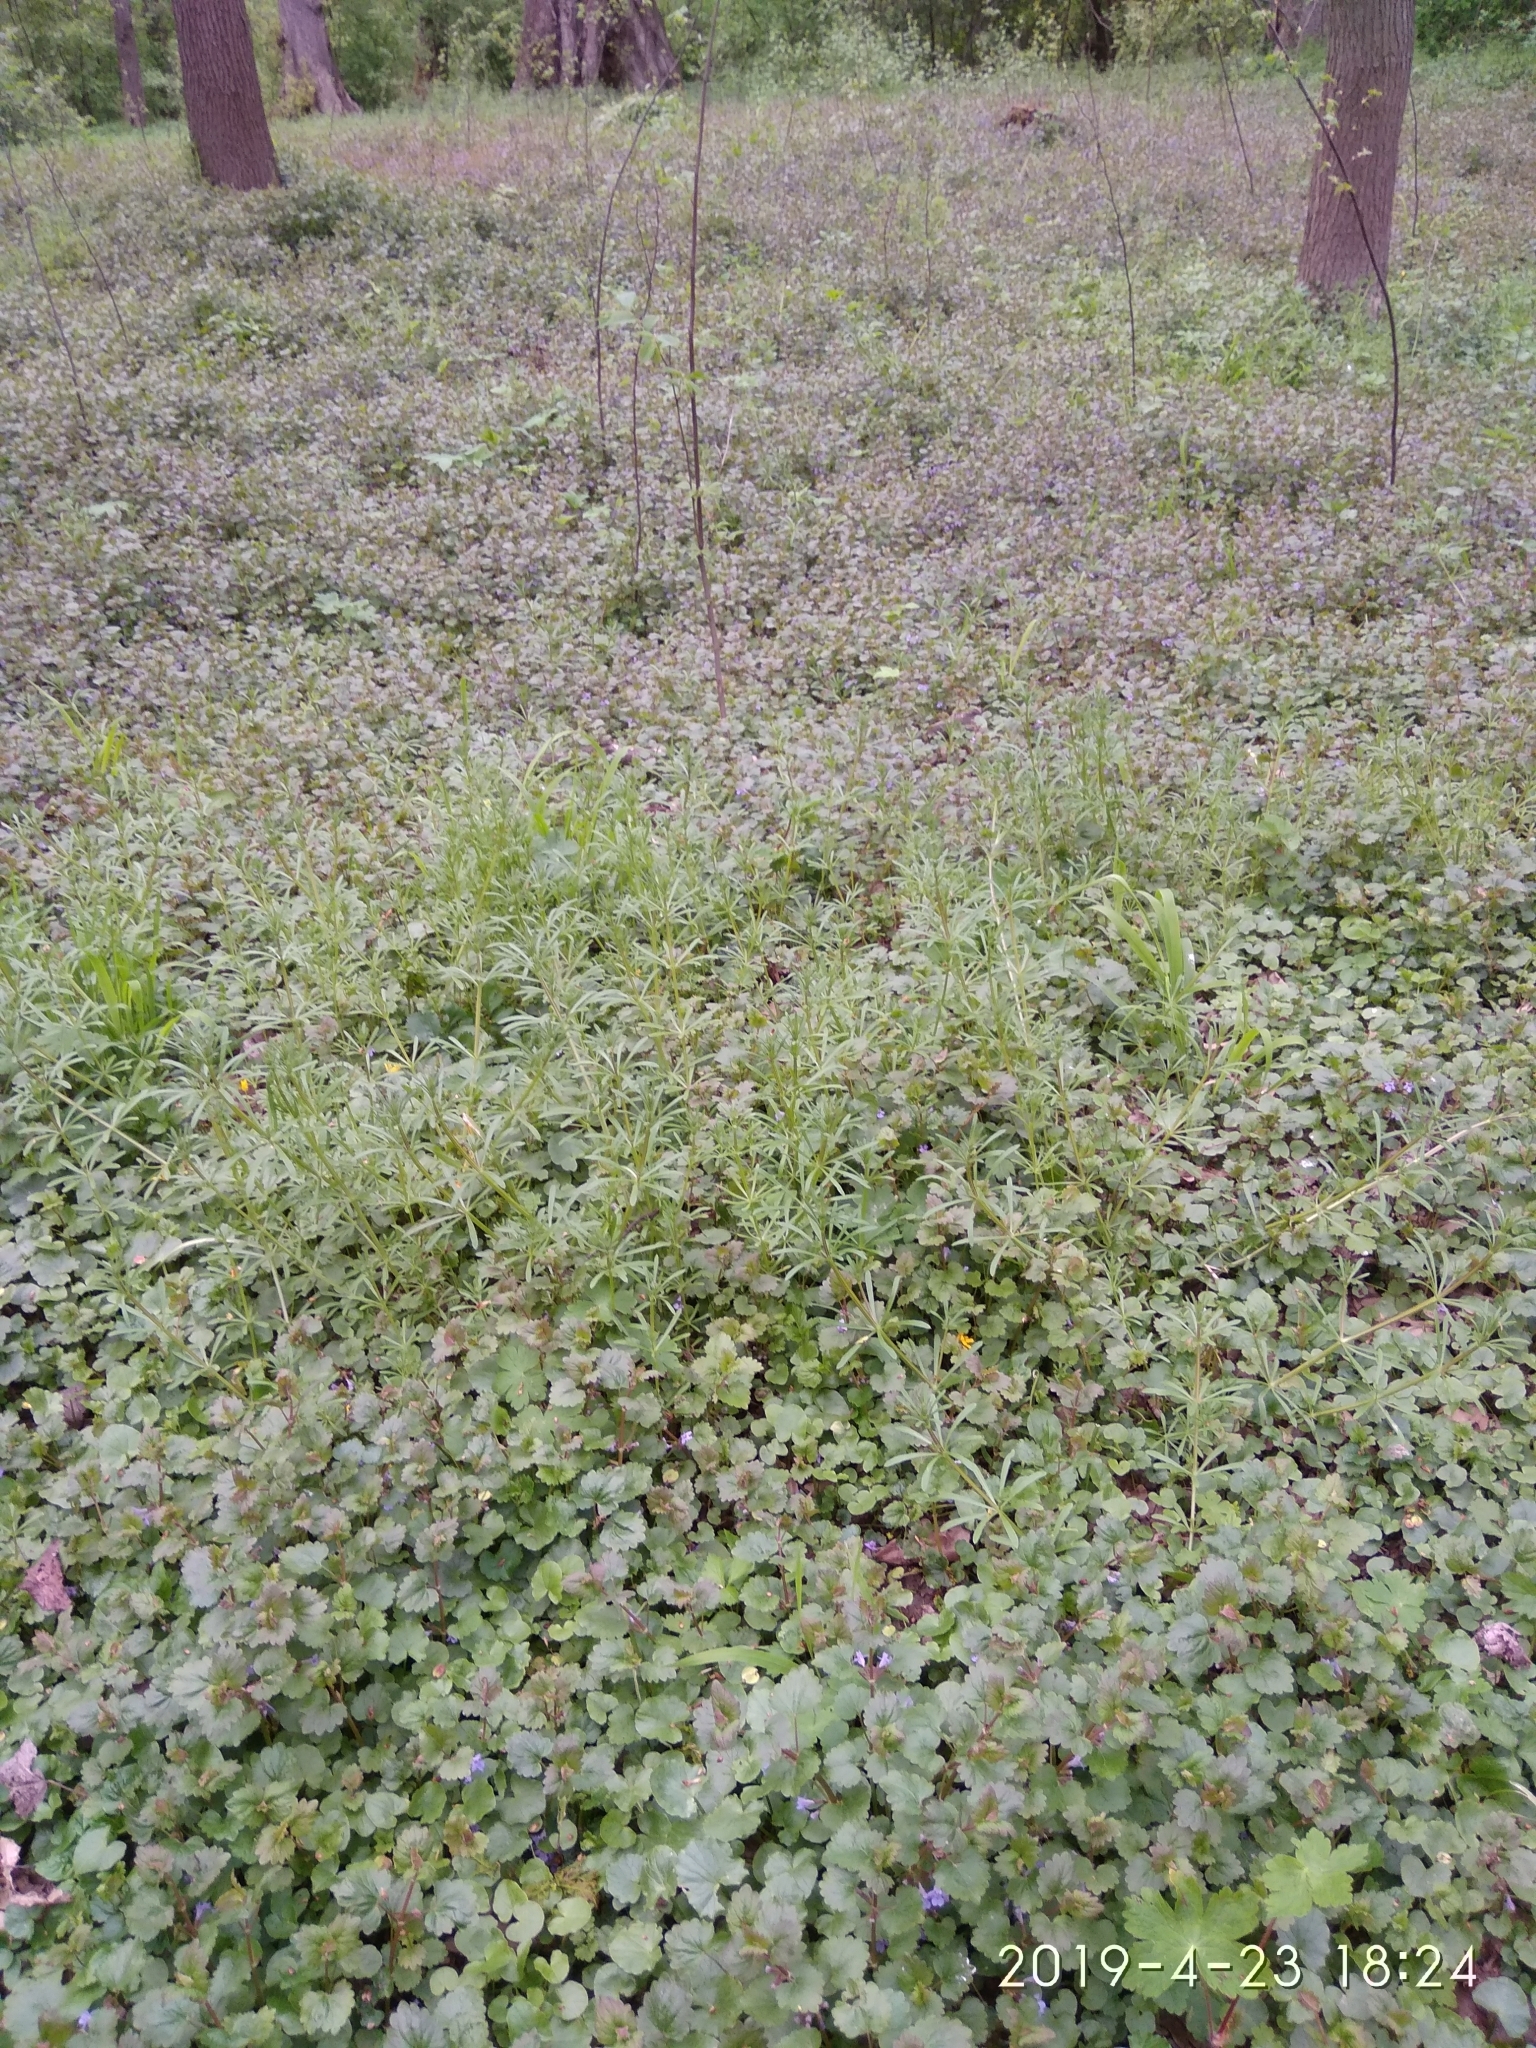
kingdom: Plantae
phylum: Tracheophyta
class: Magnoliopsida
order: Lamiales
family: Lamiaceae
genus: Glechoma
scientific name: Glechoma hederacea
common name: Ground ivy
